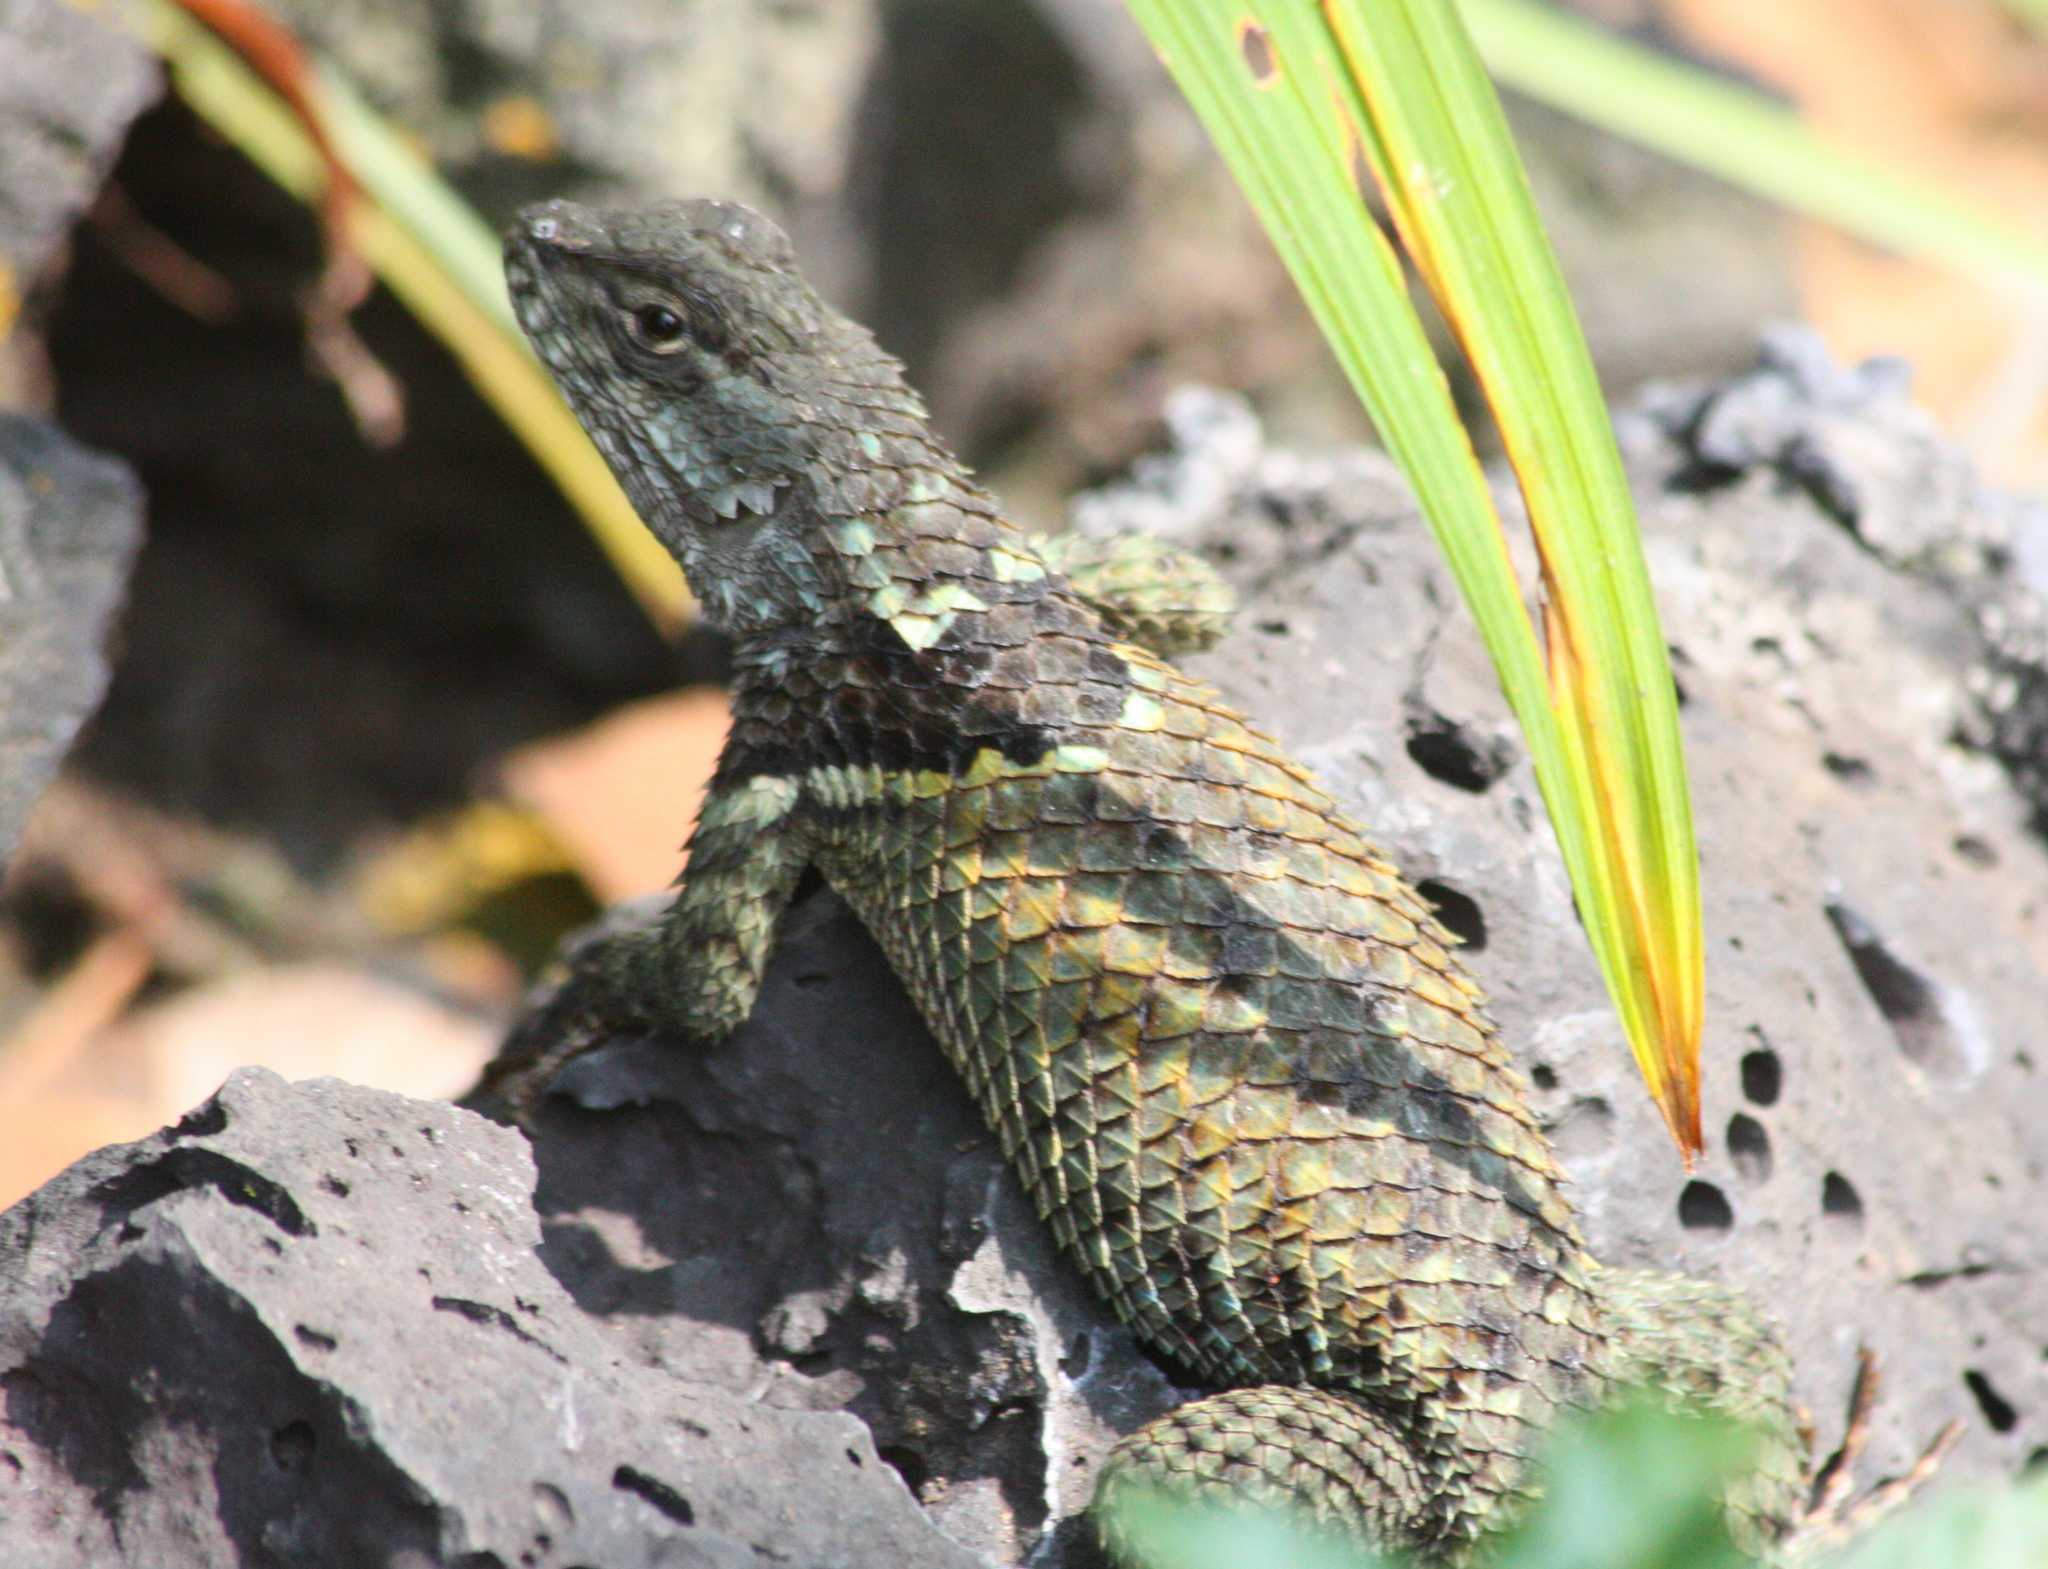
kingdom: Animalia
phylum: Chordata
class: Squamata
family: Phrynosomatidae
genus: Sceloporus
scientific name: Sceloporus torquatus
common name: Central plateau torquate lizard [melanogaster]
